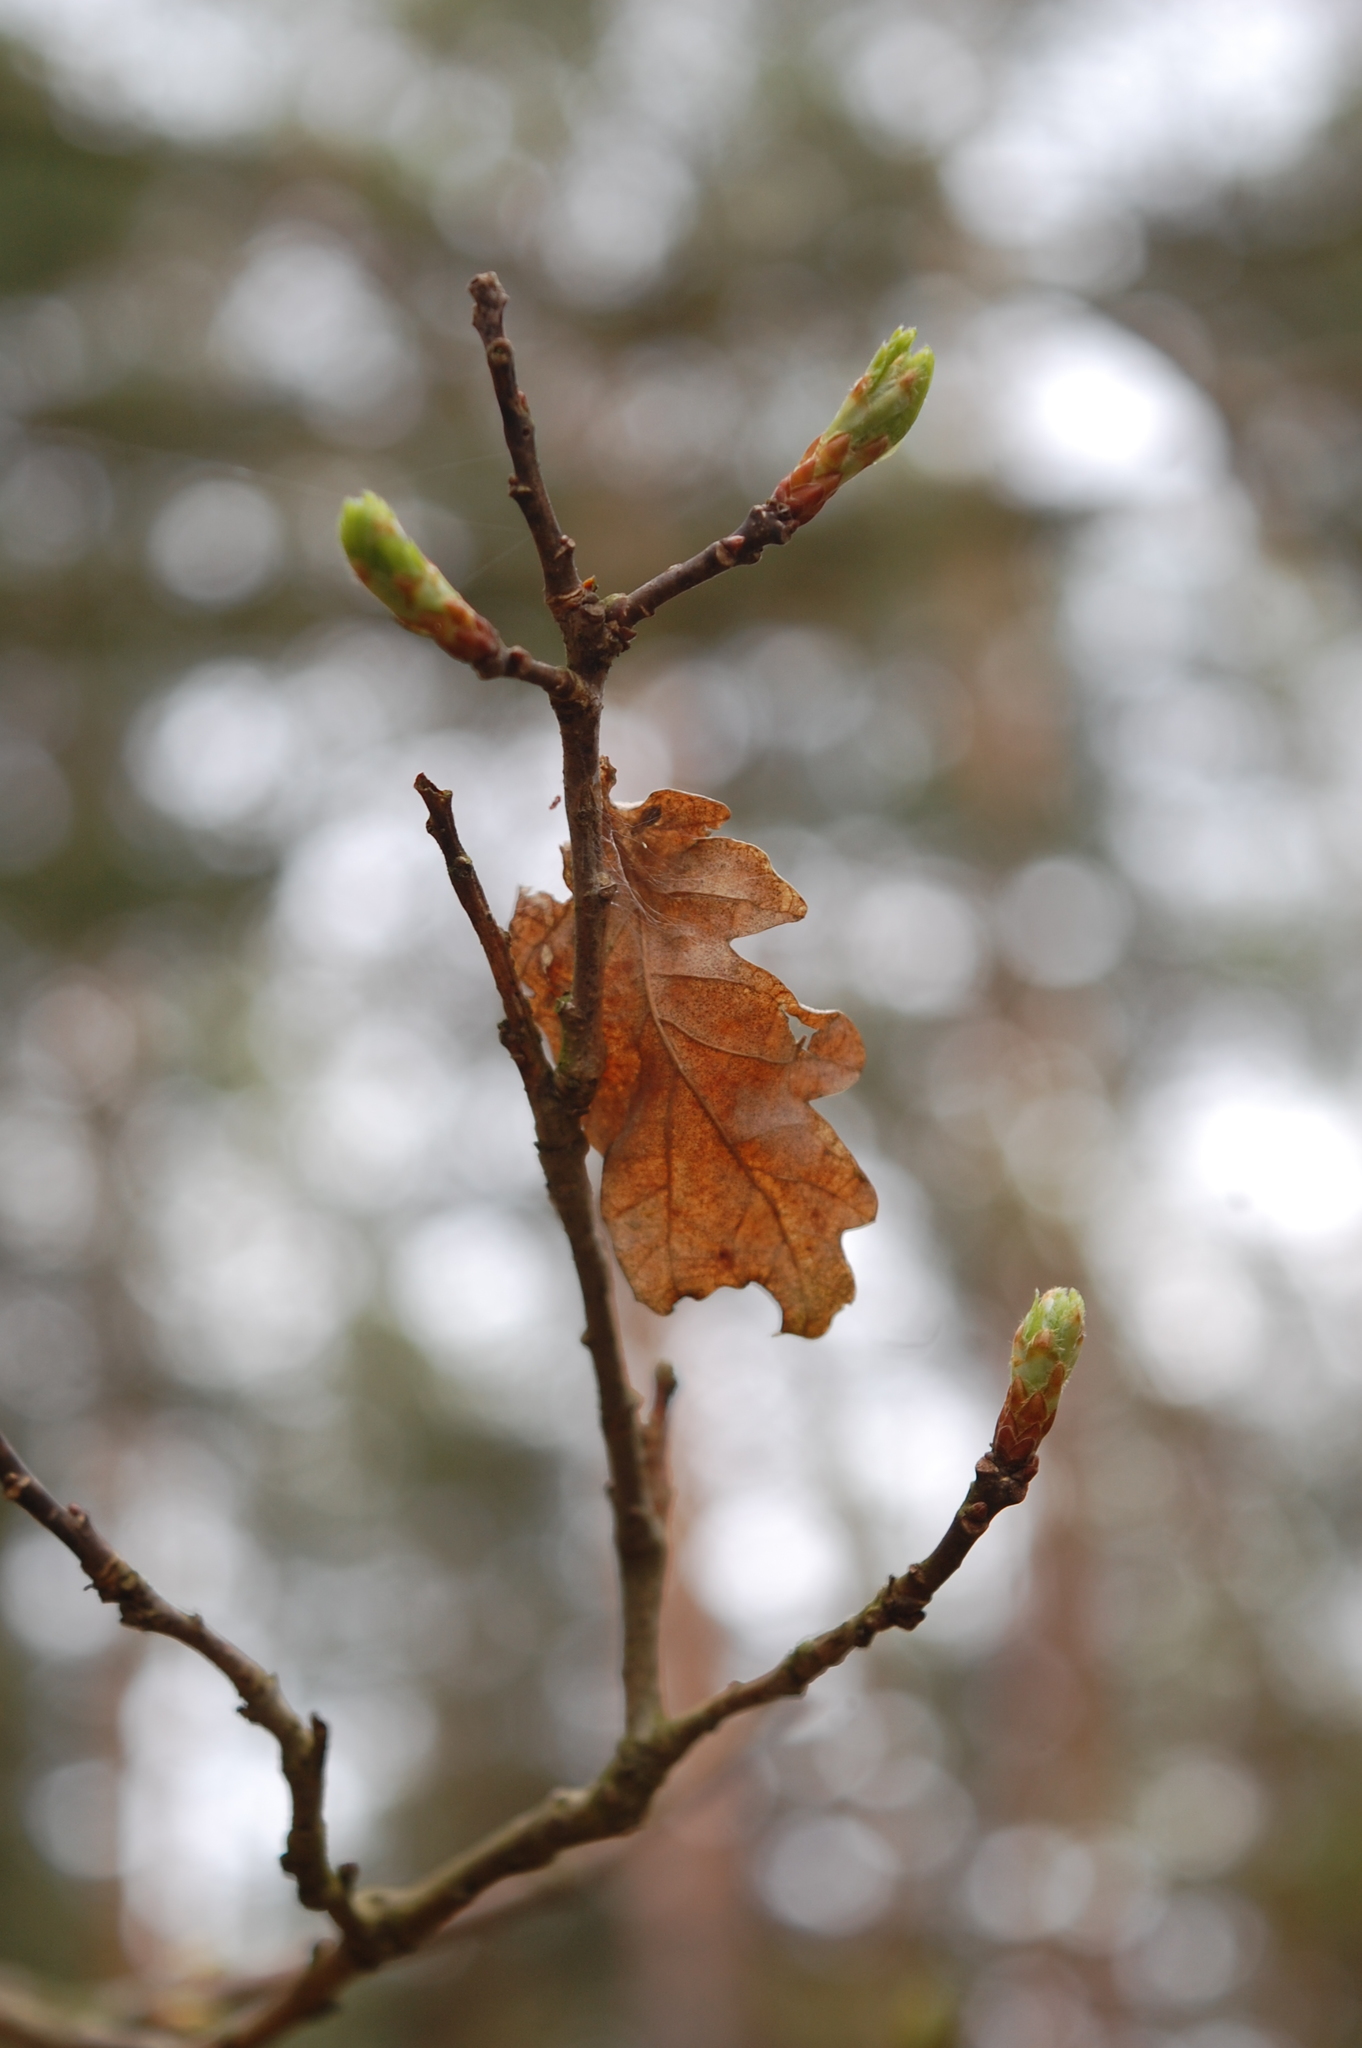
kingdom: Plantae
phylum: Tracheophyta
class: Magnoliopsida
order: Fagales
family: Fagaceae
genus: Quercus
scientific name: Quercus robur
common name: Pedunculate oak
